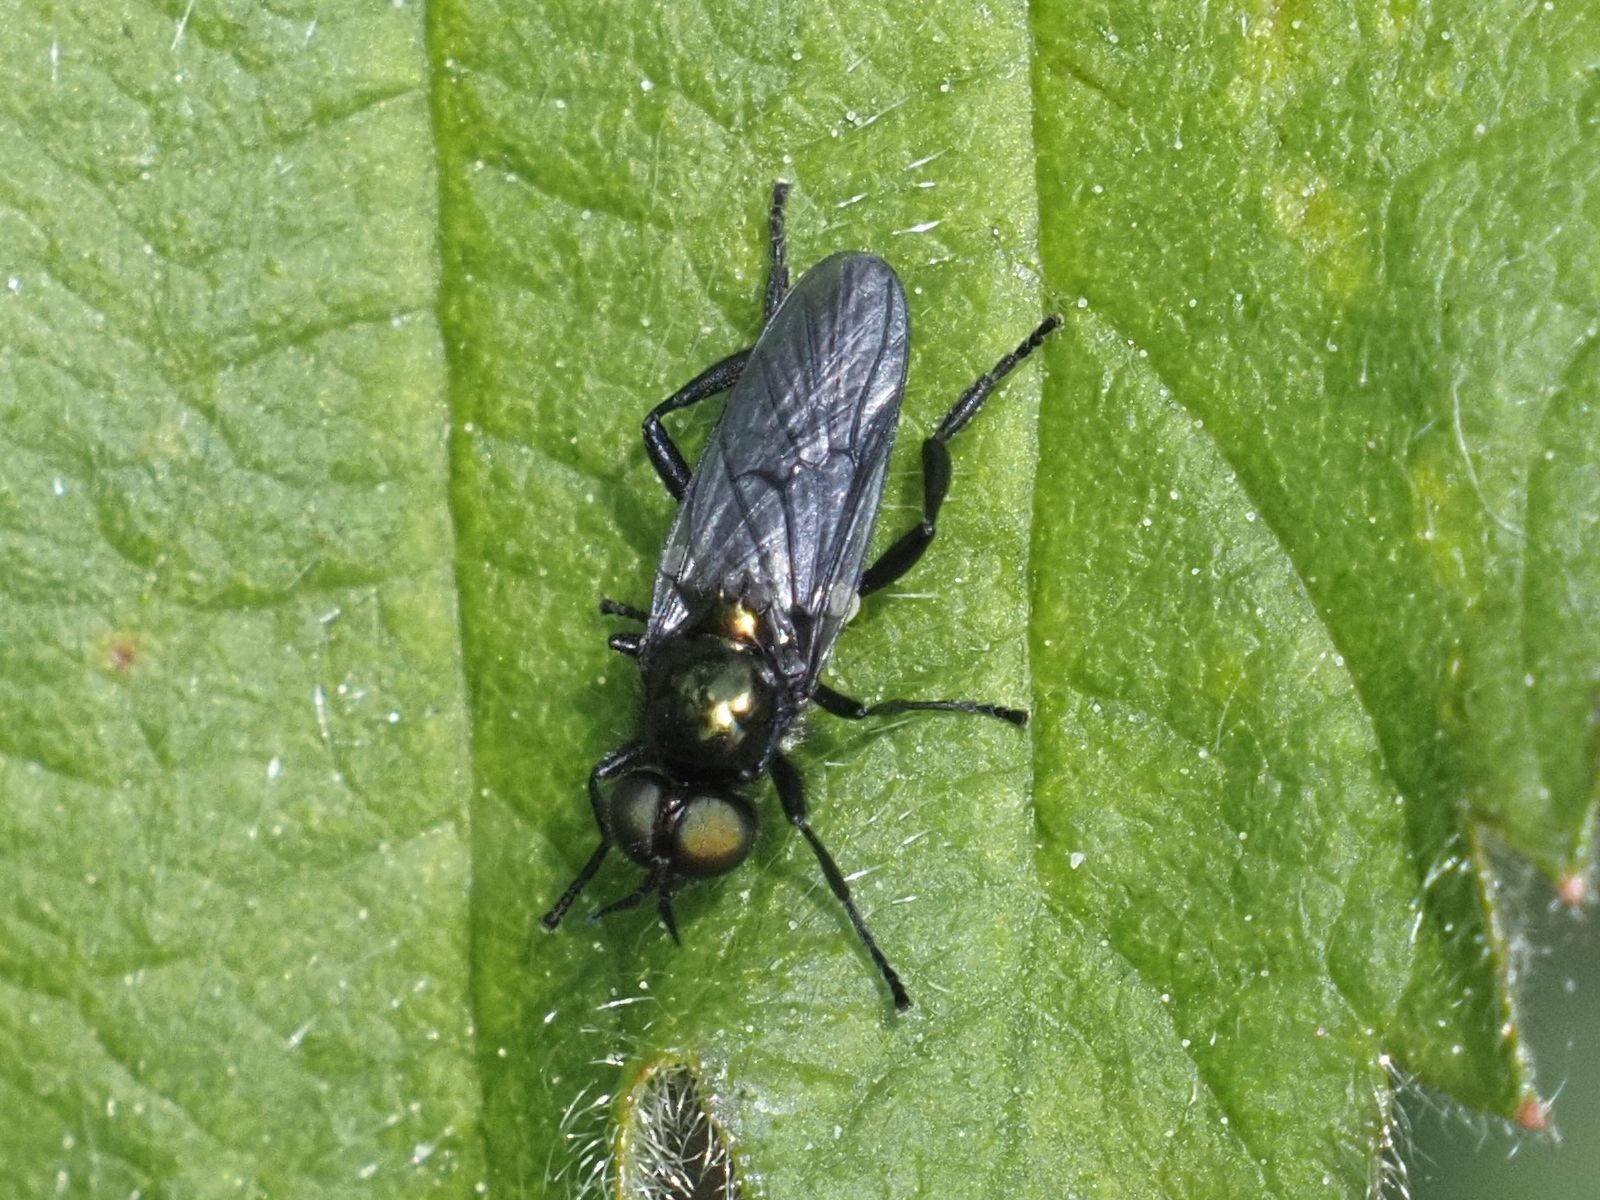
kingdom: Animalia
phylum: Arthropoda
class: Insecta
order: Diptera
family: Stratiomyidae
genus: Actina
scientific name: Actina chalybea
